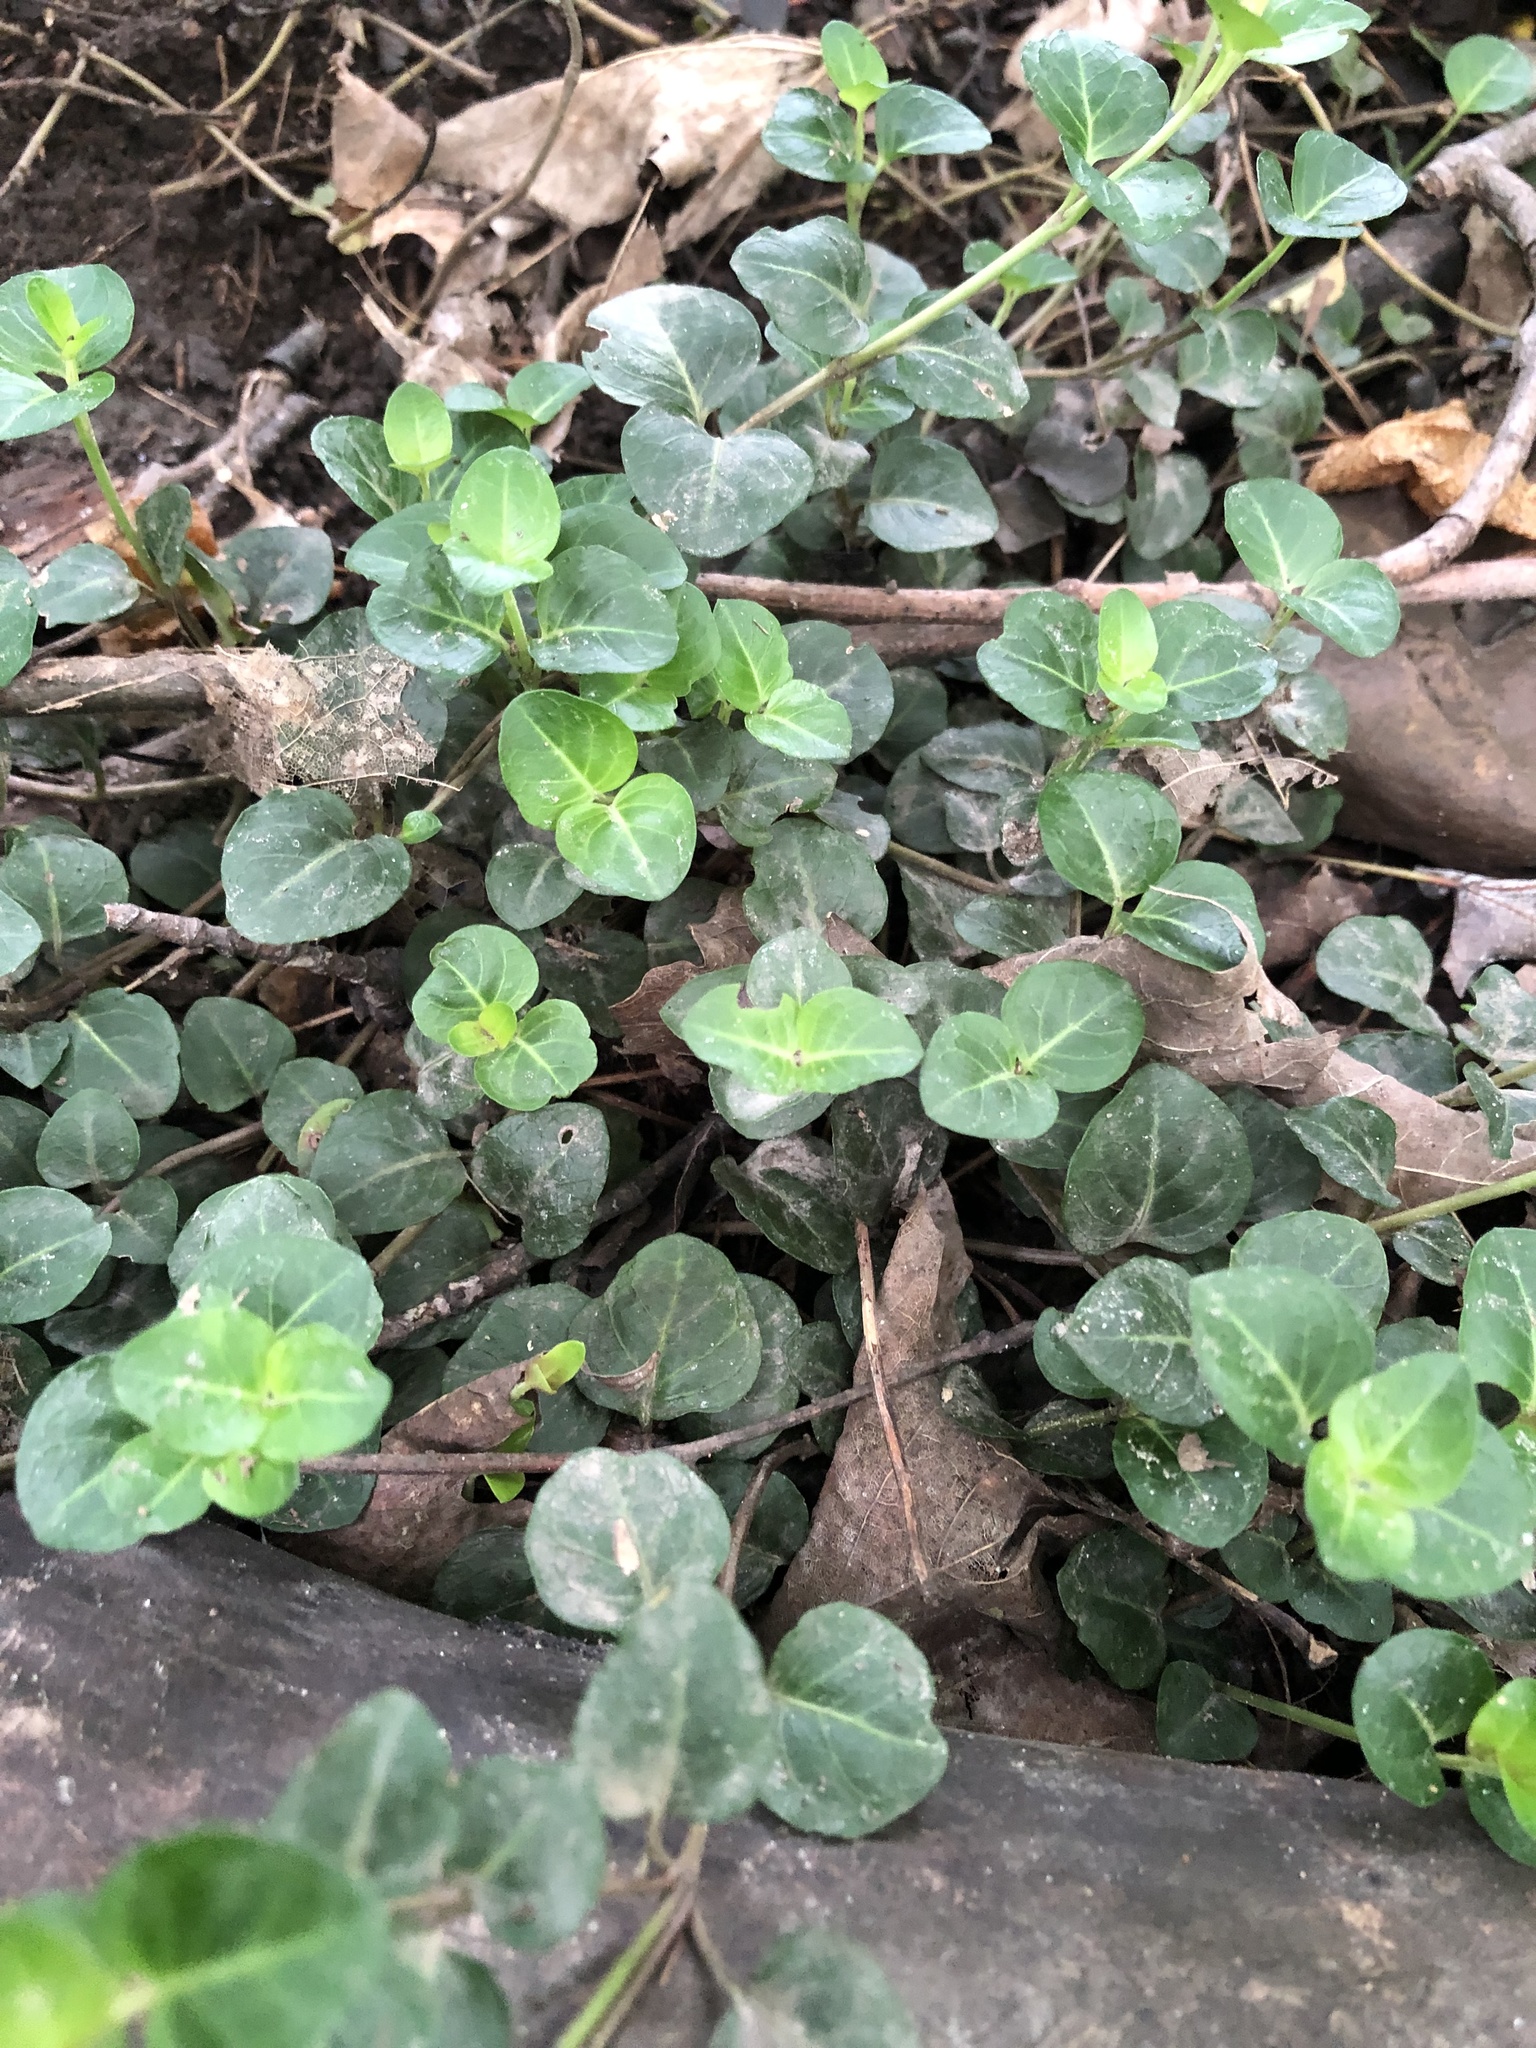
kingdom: Plantae
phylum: Tracheophyta
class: Magnoliopsida
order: Gentianales
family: Rubiaceae
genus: Mitchella
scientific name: Mitchella repens
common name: Partridge-berry
